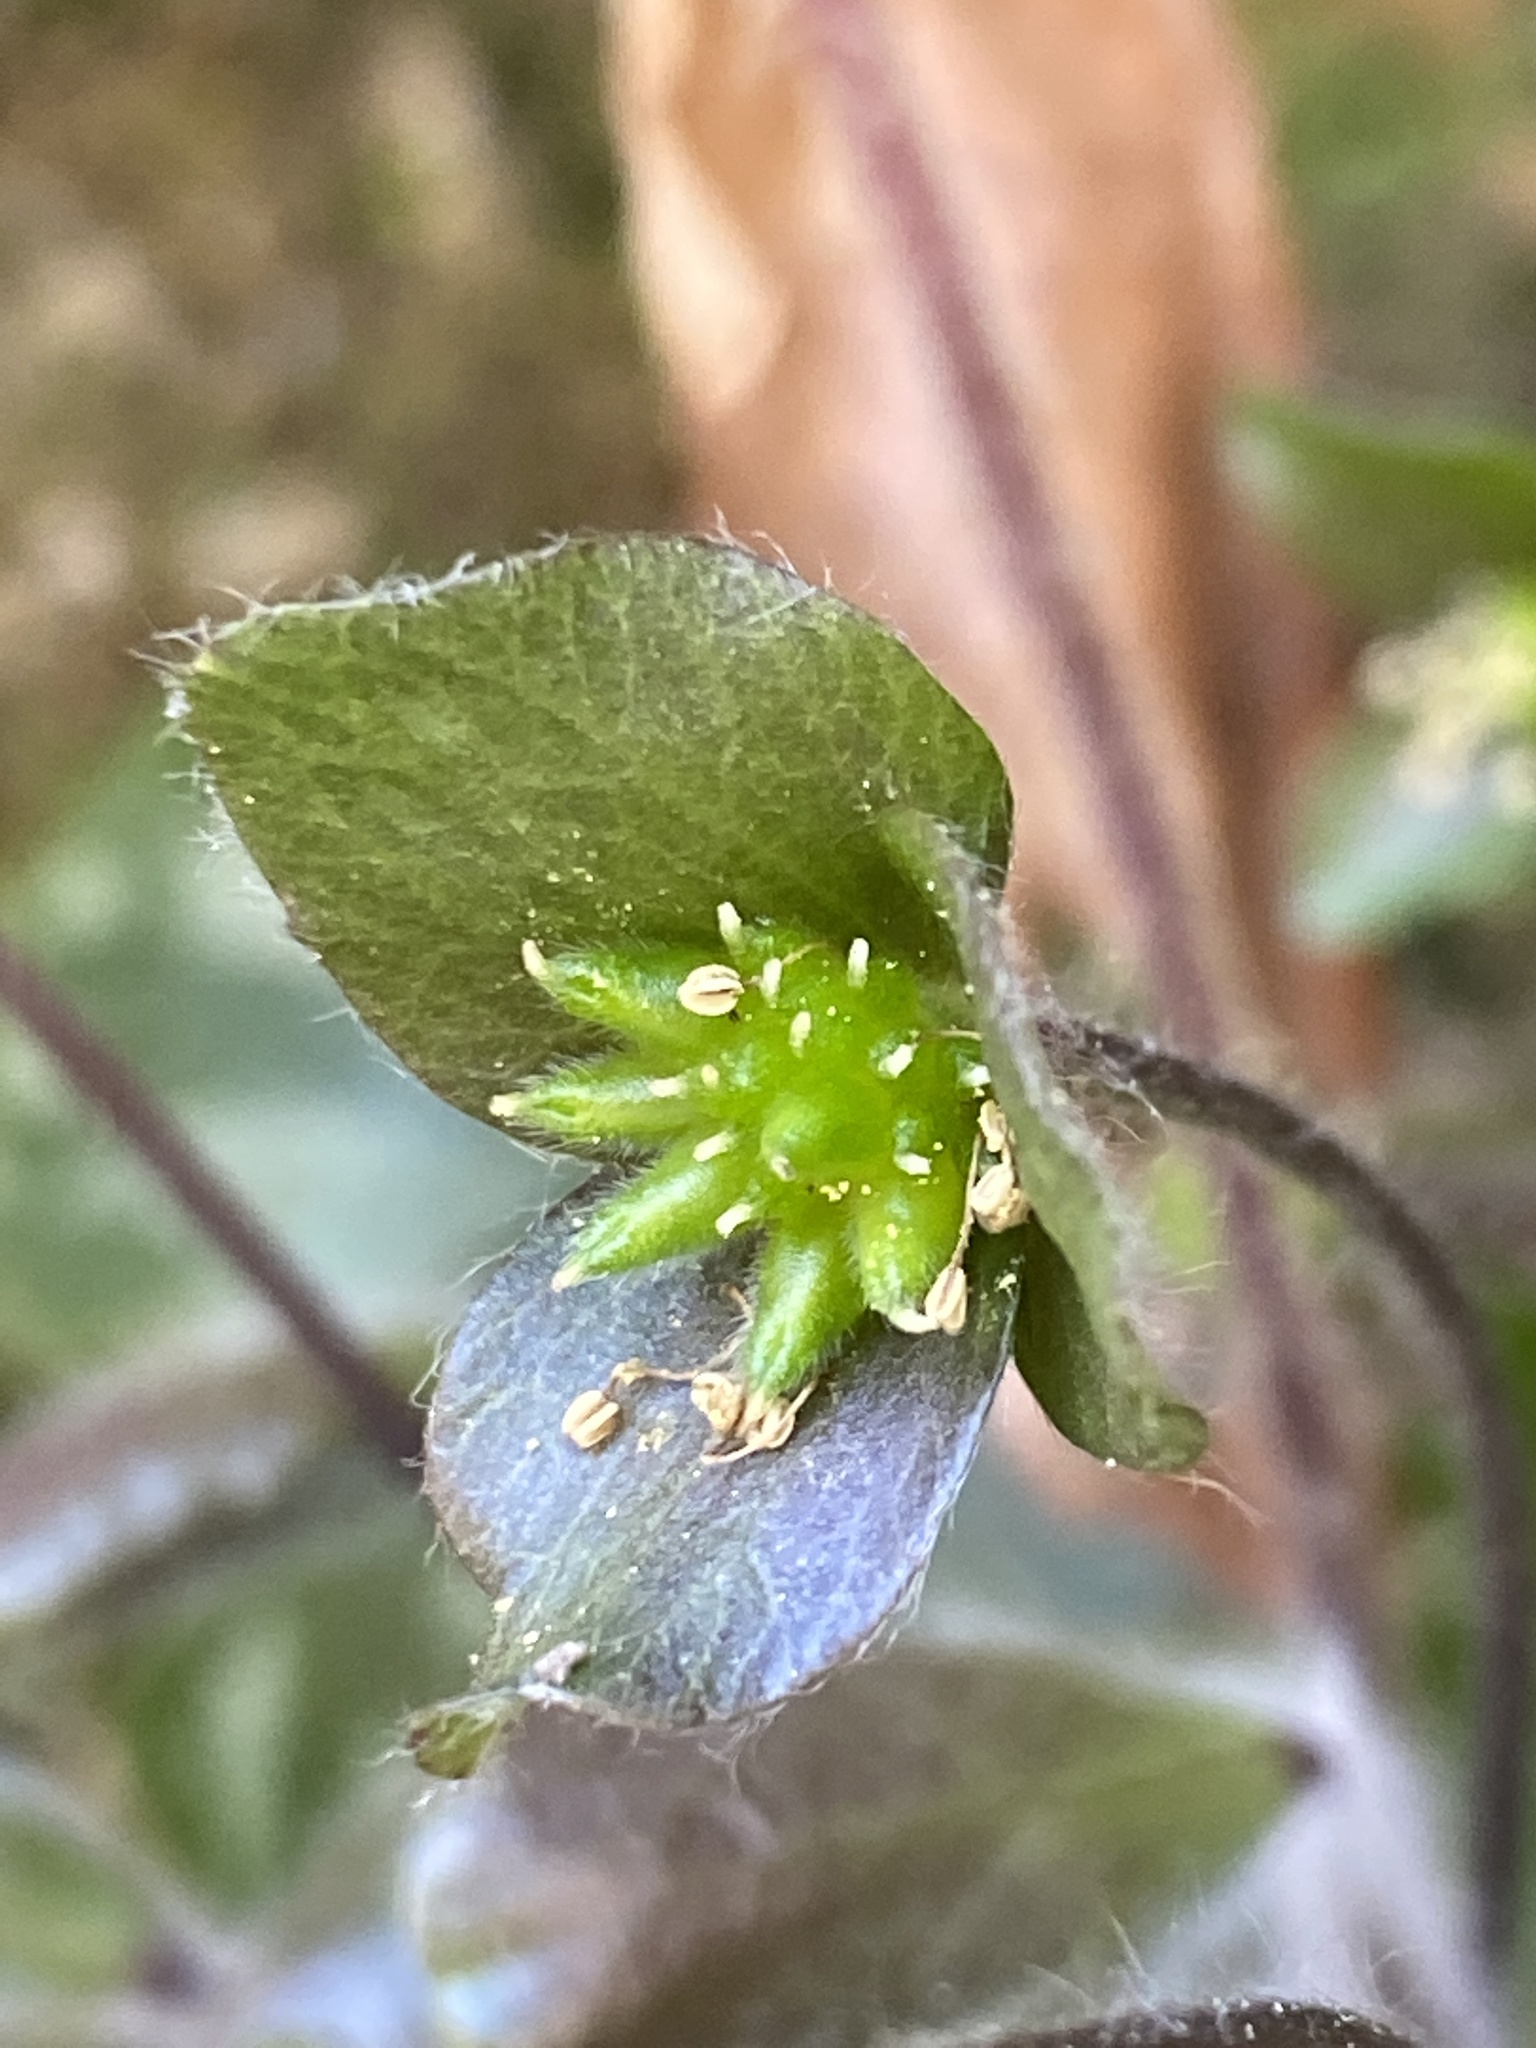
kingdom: Plantae
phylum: Tracheophyta
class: Magnoliopsida
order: Ranunculales
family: Ranunculaceae
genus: Hepatica
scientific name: Hepatica americana
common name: American hepatica
